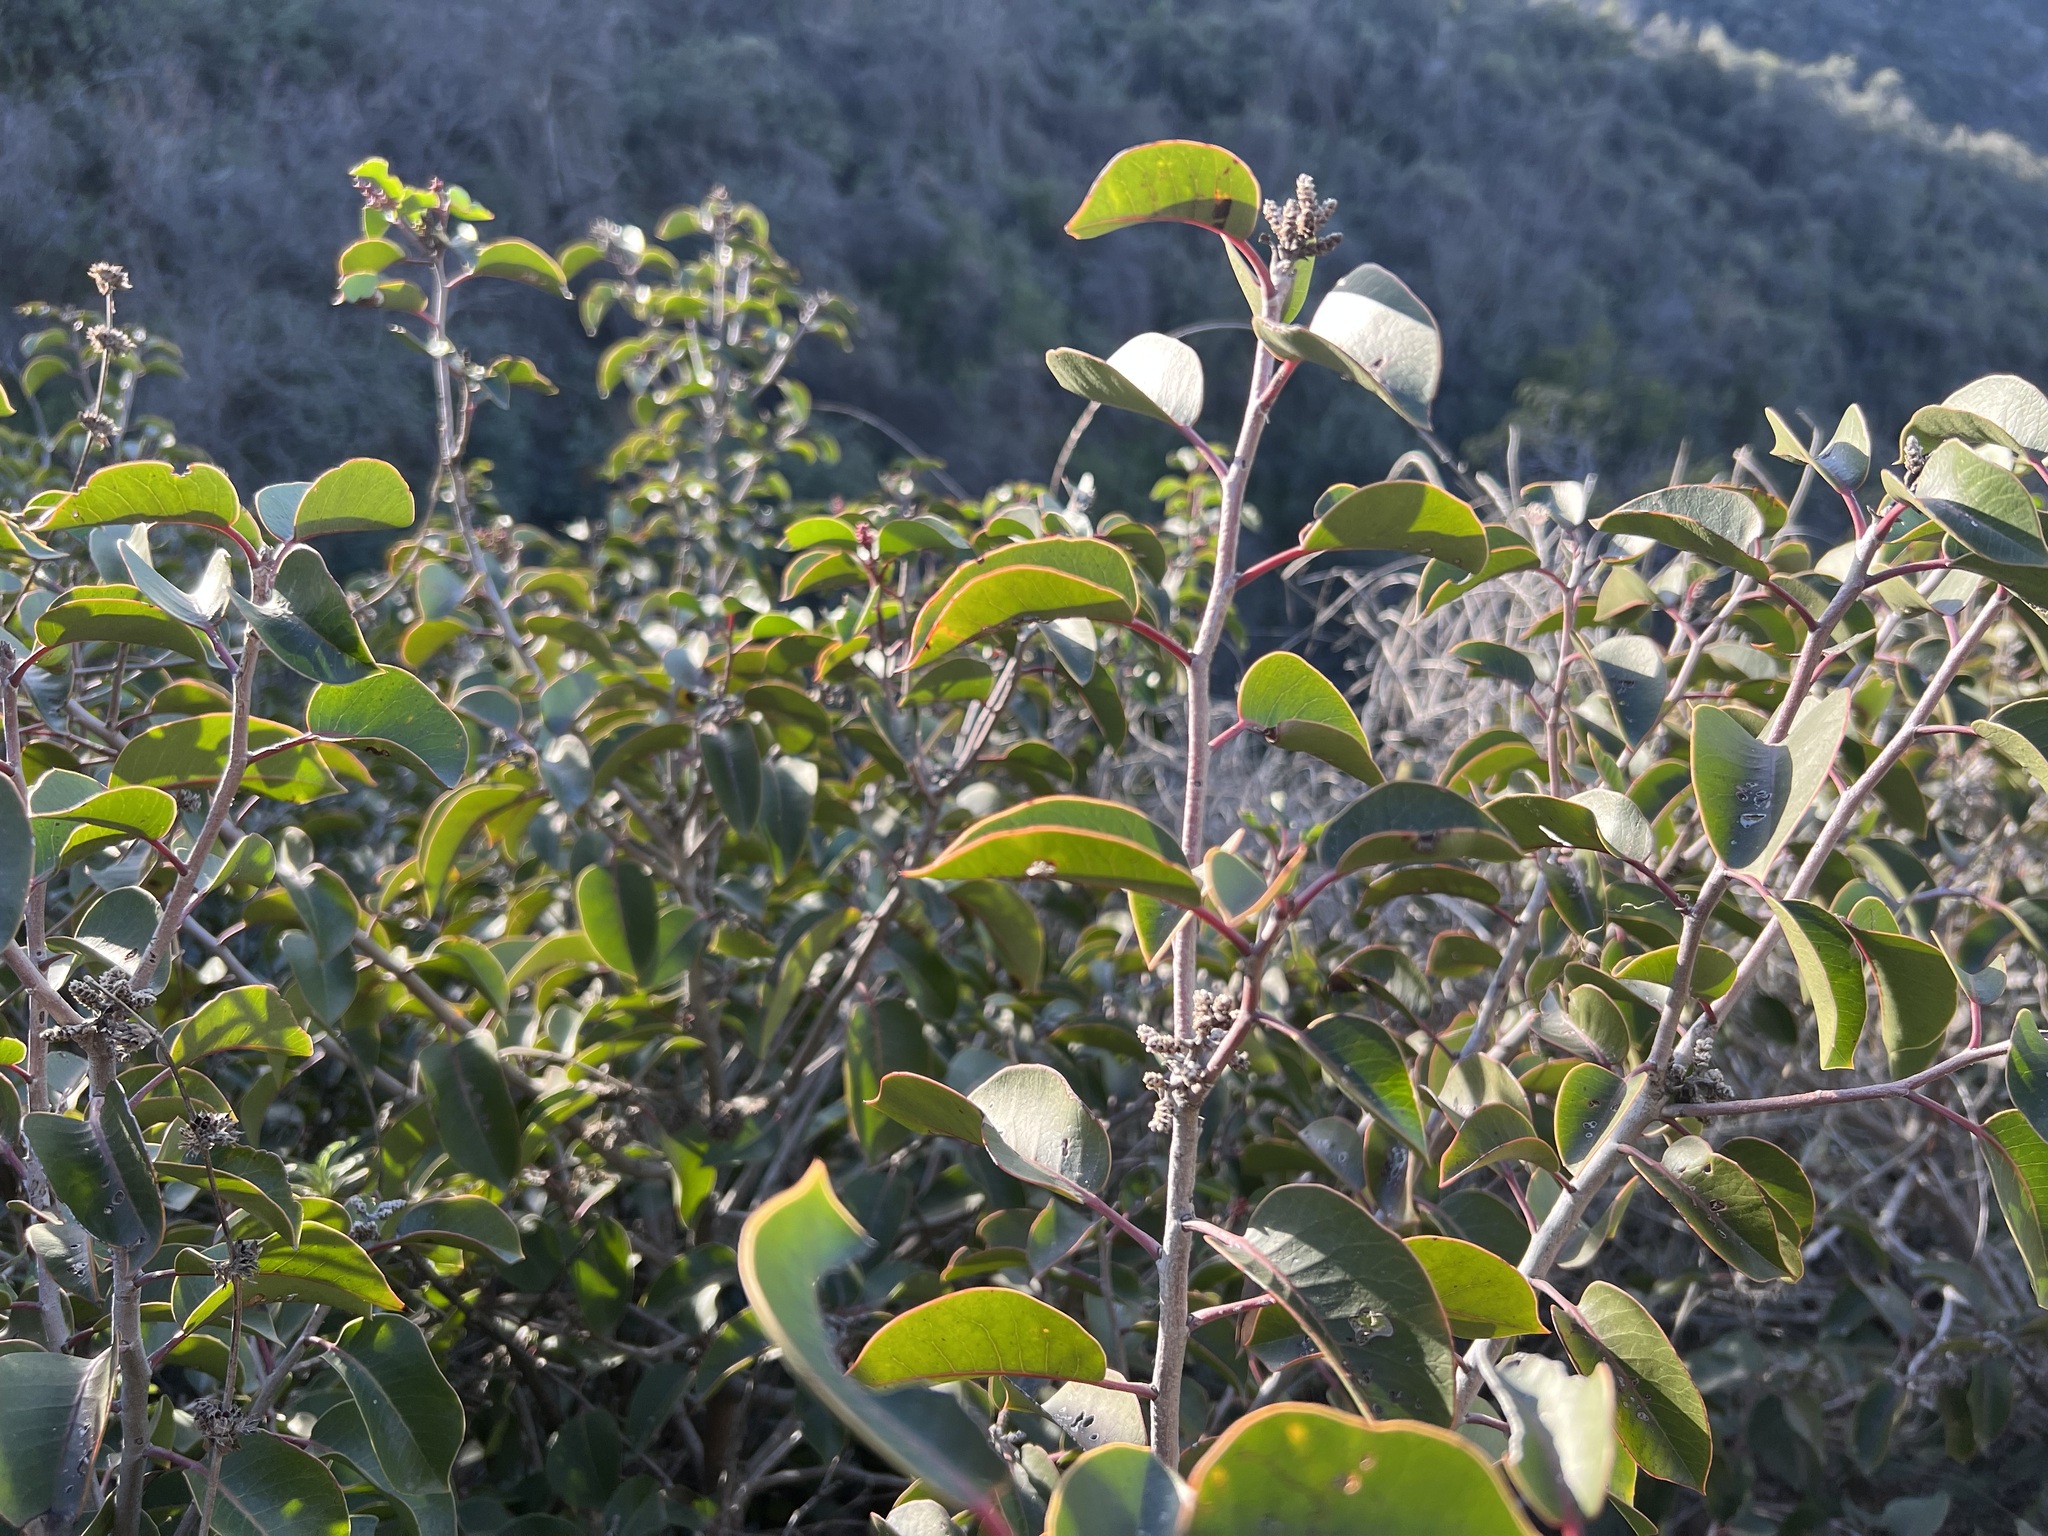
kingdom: Plantae
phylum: Tracheophyta
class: Magnoliopsida
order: Sapindales
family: Anacardiaceae
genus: Rhus
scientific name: Rhus ovata
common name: Sugar sumac
